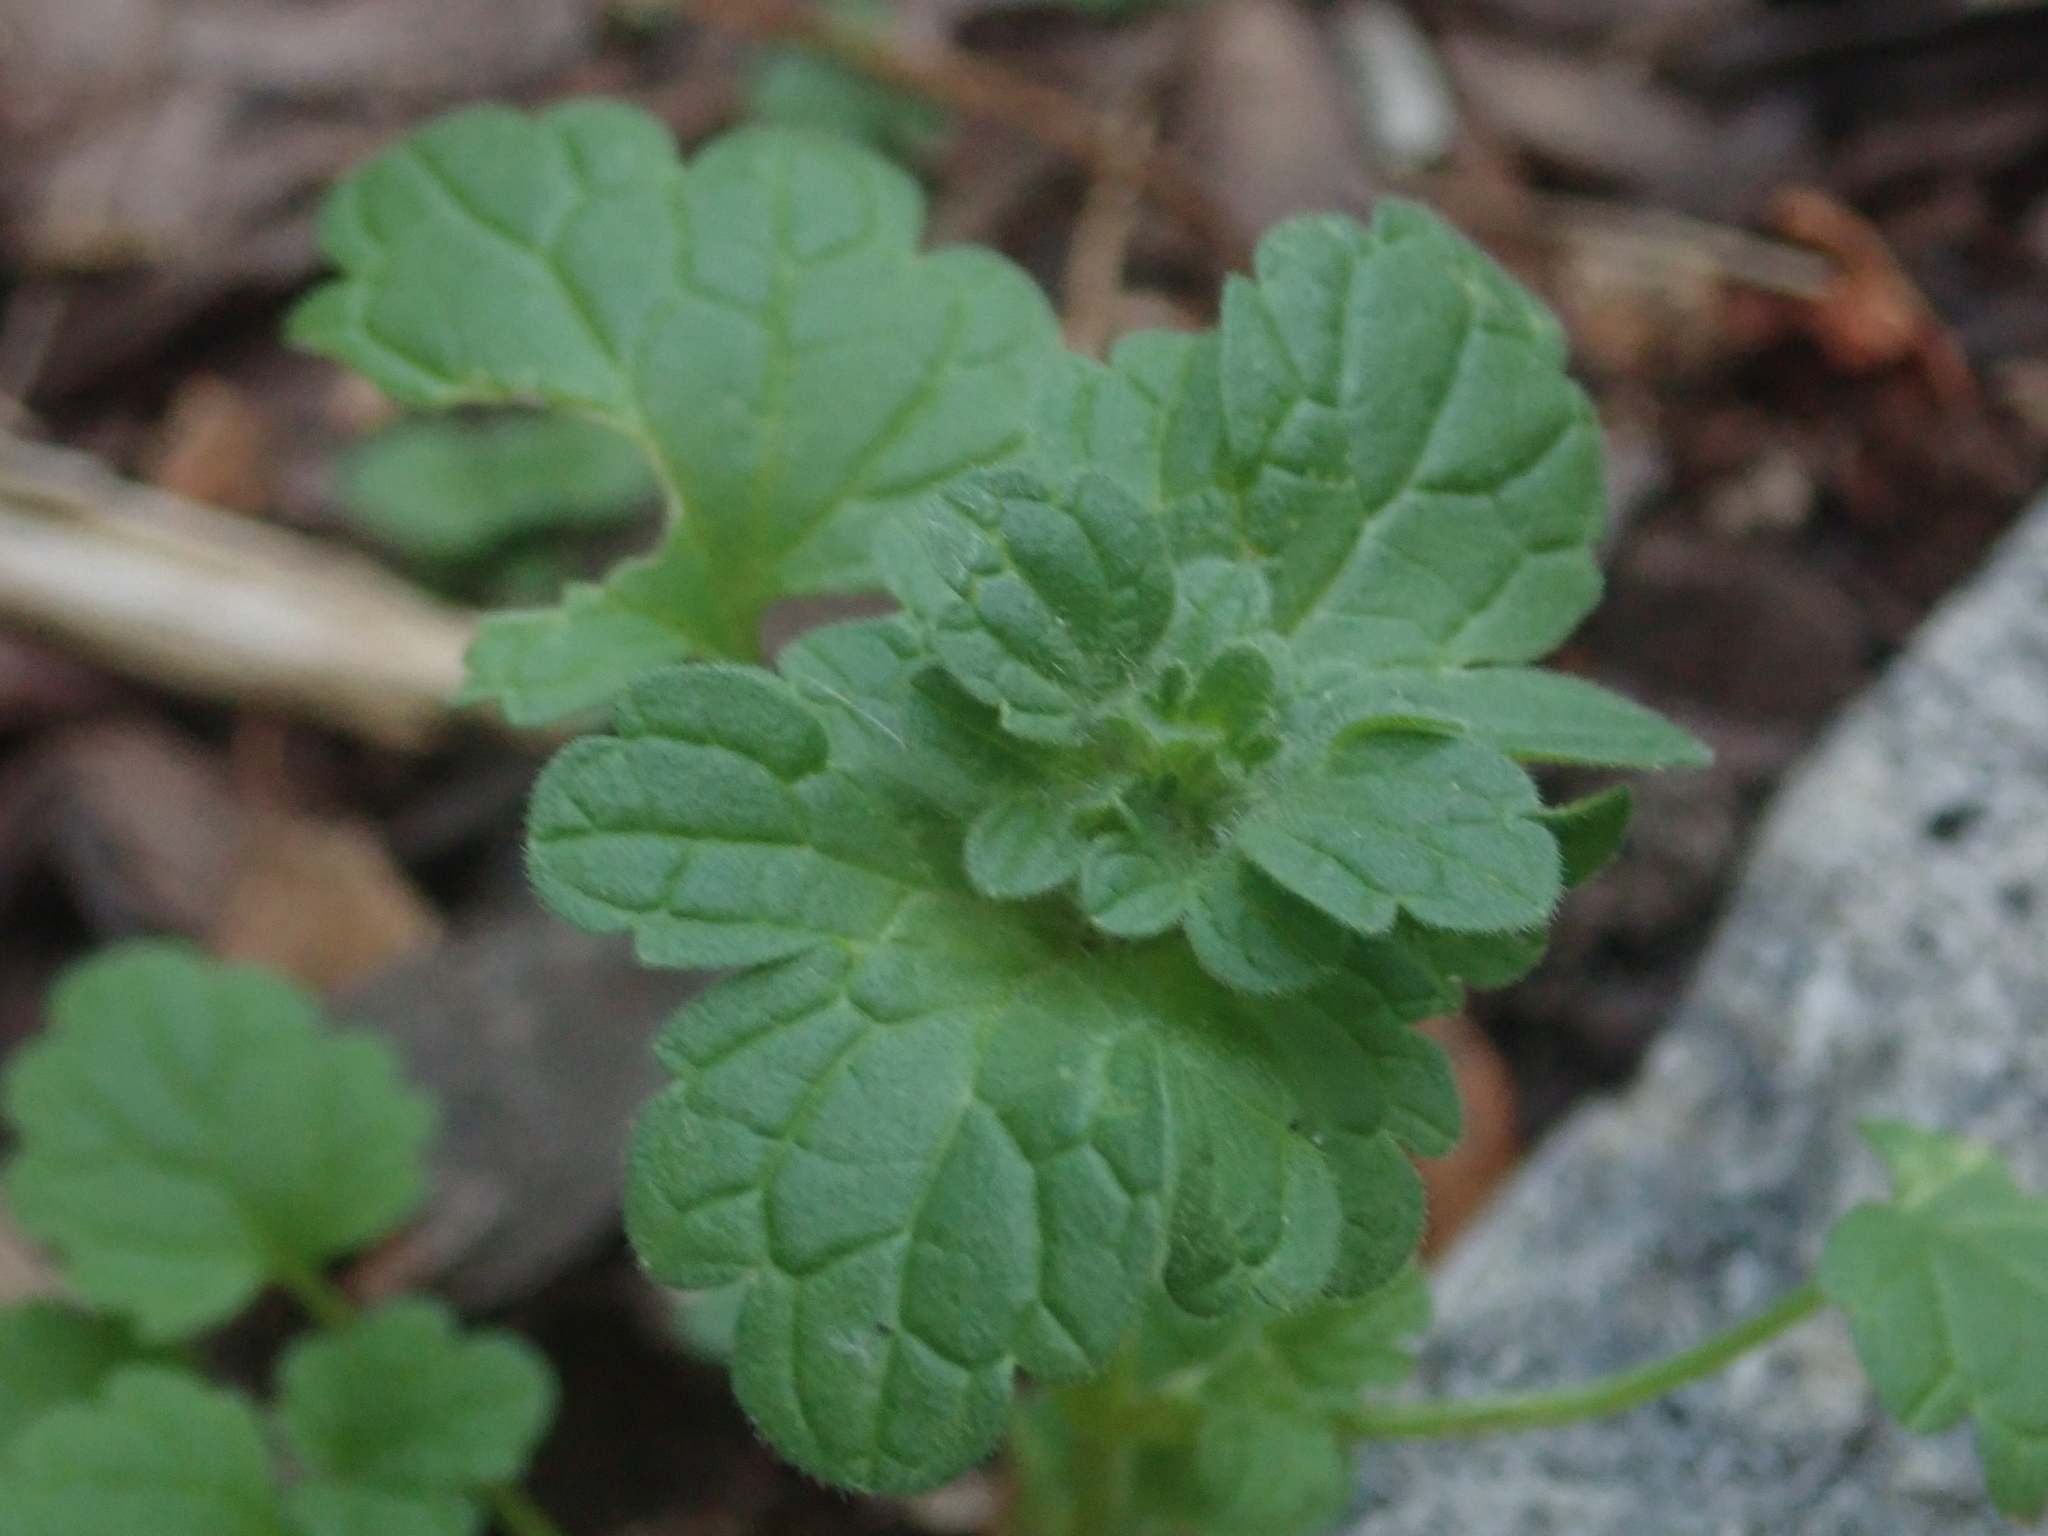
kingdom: Plantae
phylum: Tracheophyta
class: Magnoliopsida
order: Lamiales
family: Lamiaceae
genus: Lamium
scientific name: Lamium amplexicaule
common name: Henbit dead-nettle
